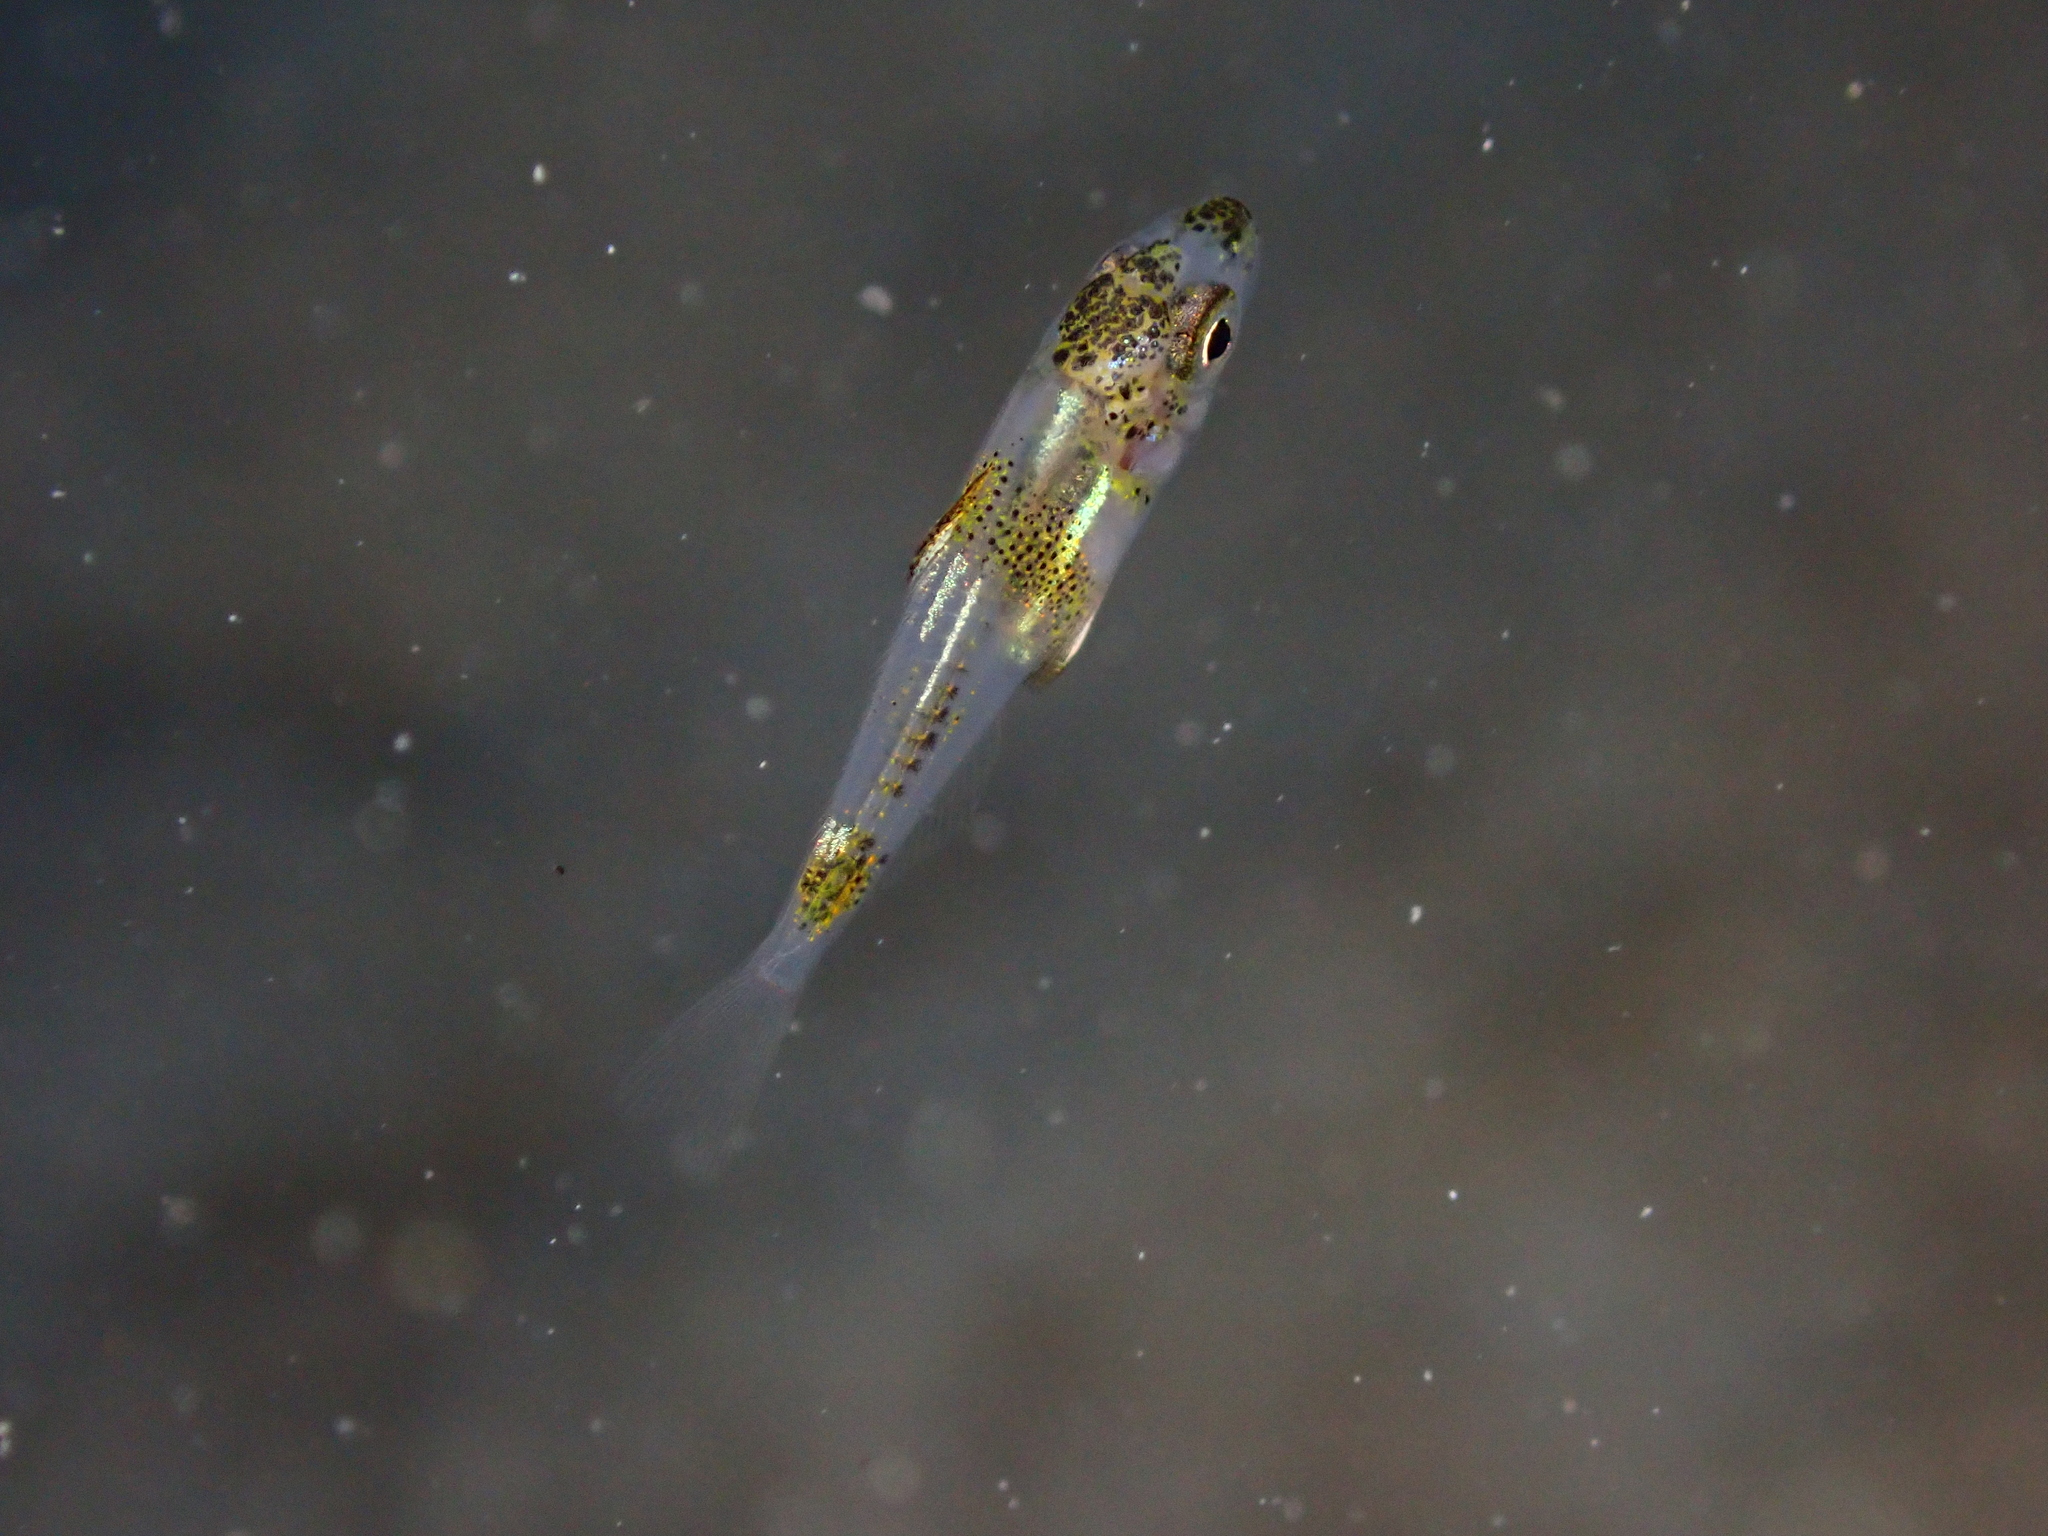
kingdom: Animalia
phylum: Chordata
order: Perciformes
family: Sparidae
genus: Diplodus
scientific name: Diplodus puntazzo
